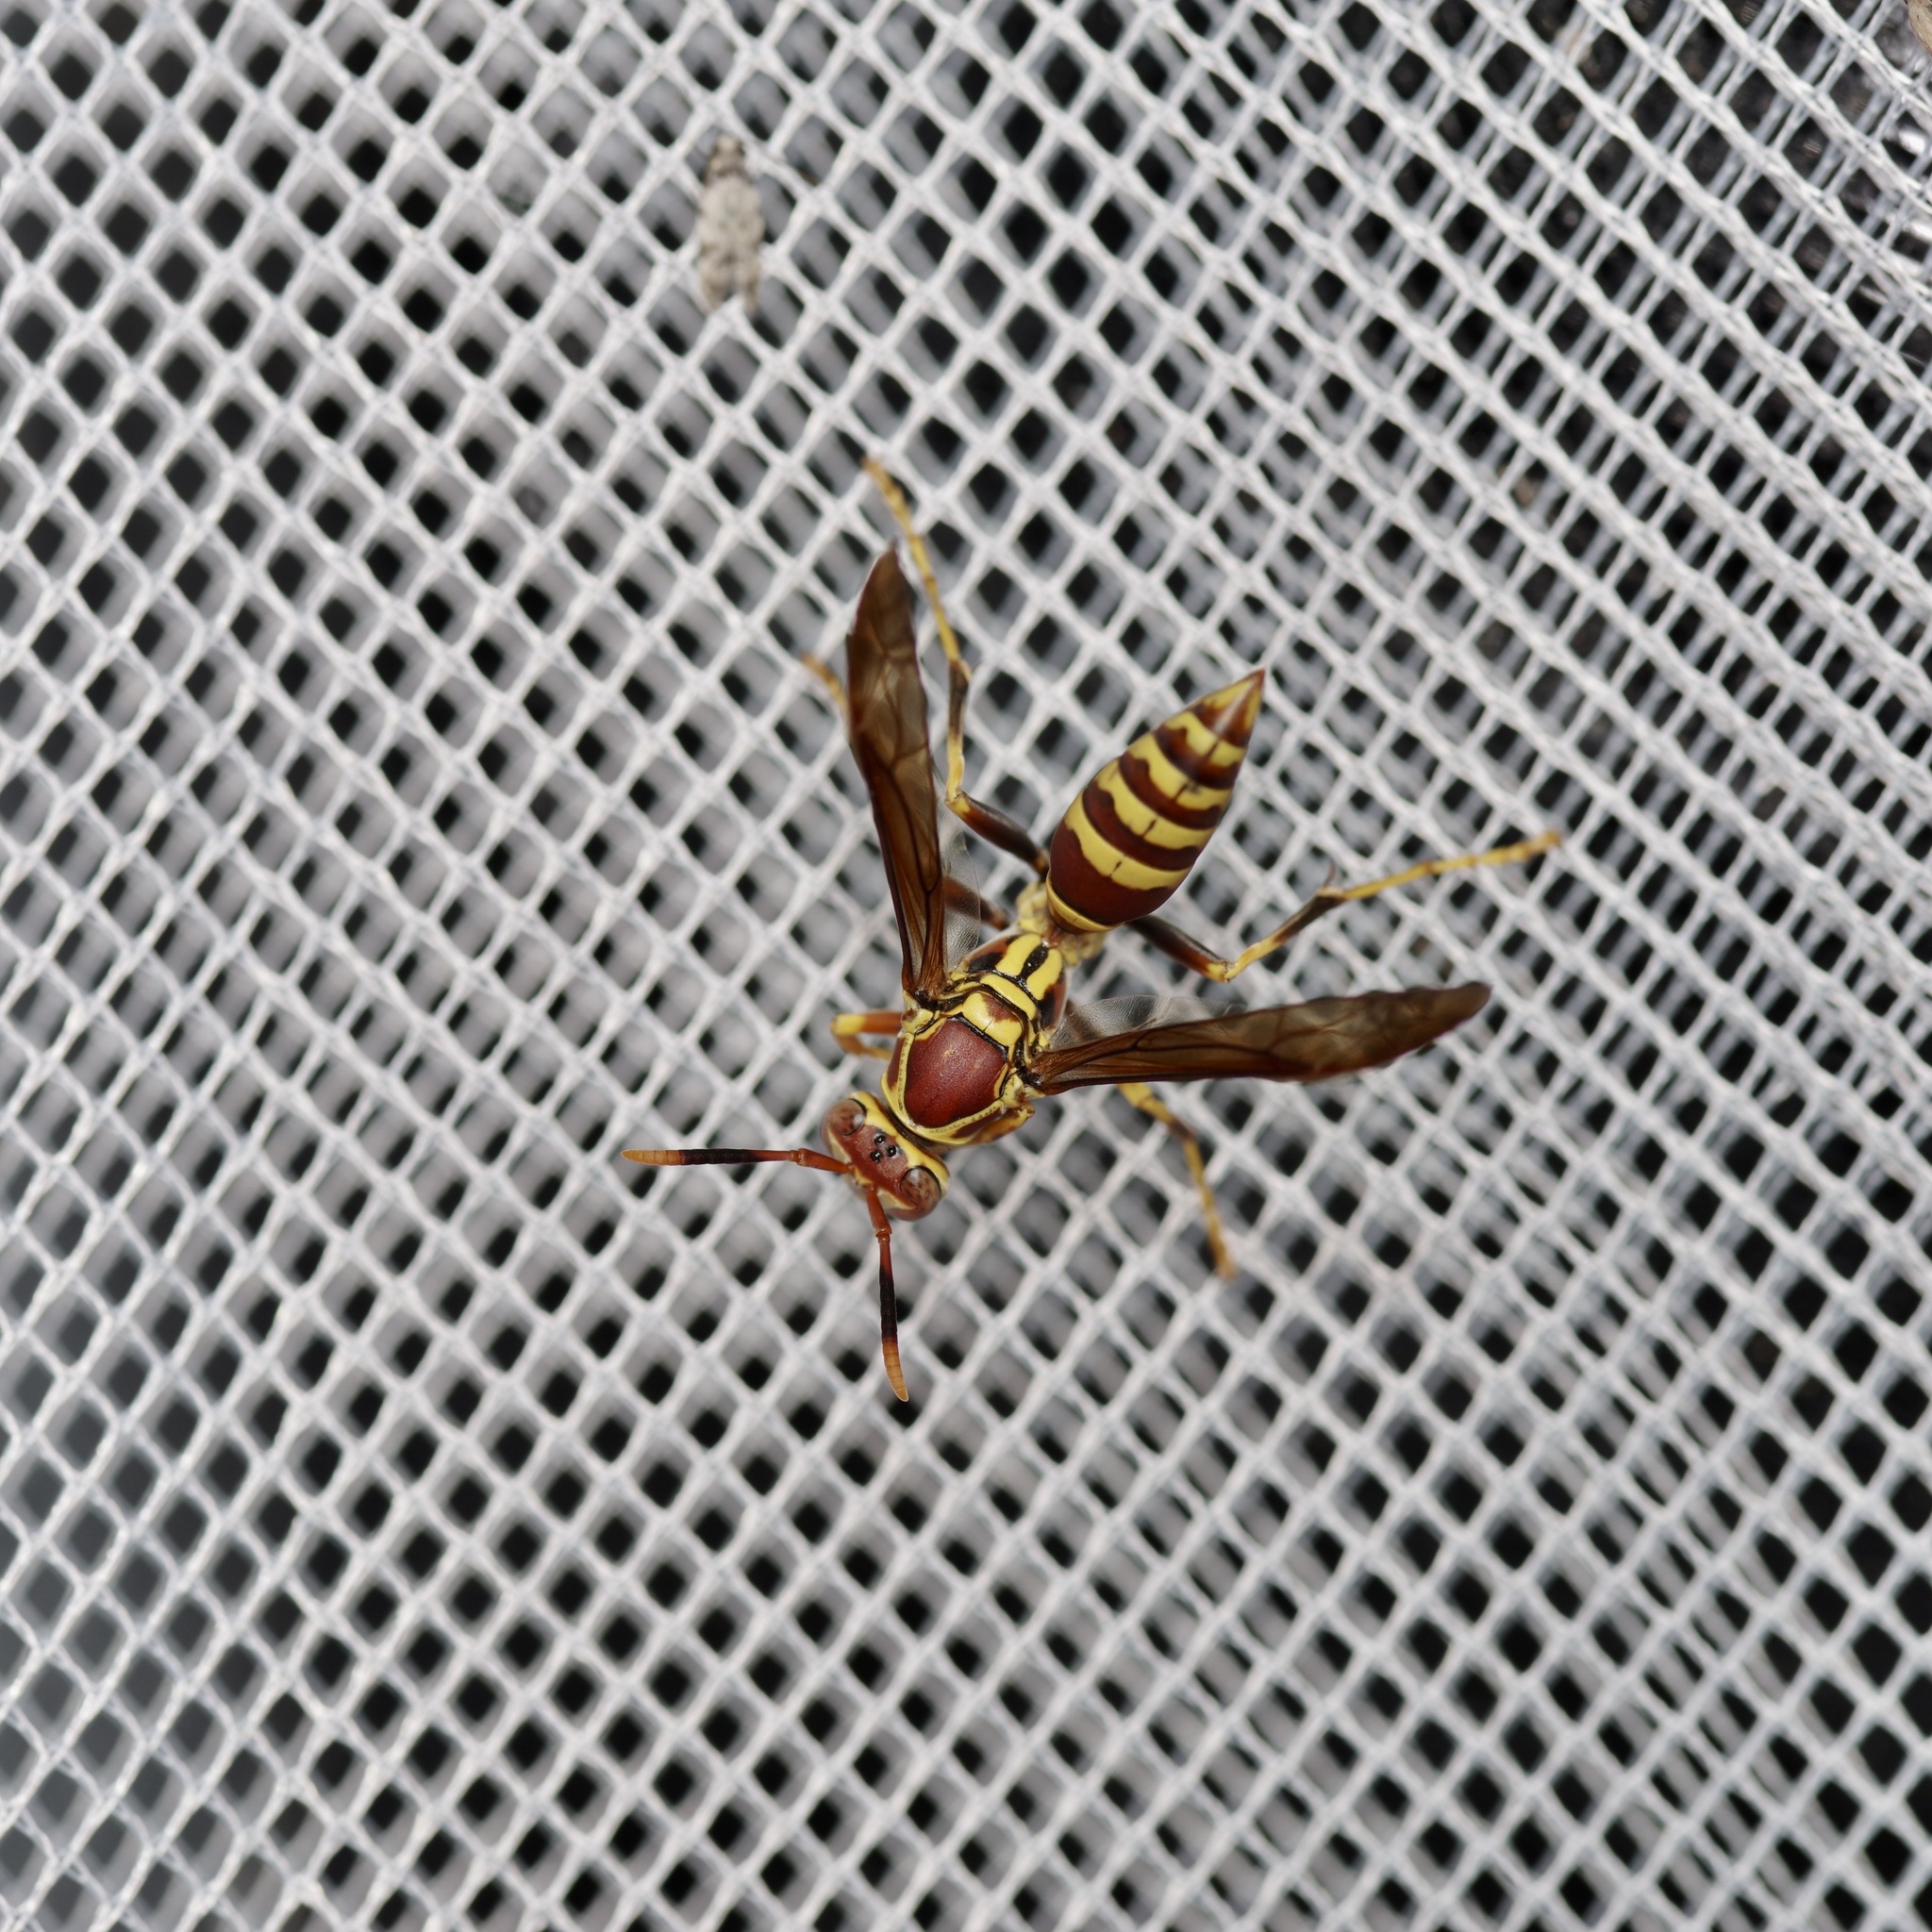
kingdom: Animalia
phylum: Arthropoda
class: Insecta
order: Hymenoptera
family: Eumenidae
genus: Polistes
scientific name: Polistes exclamans
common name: Paper wasp
